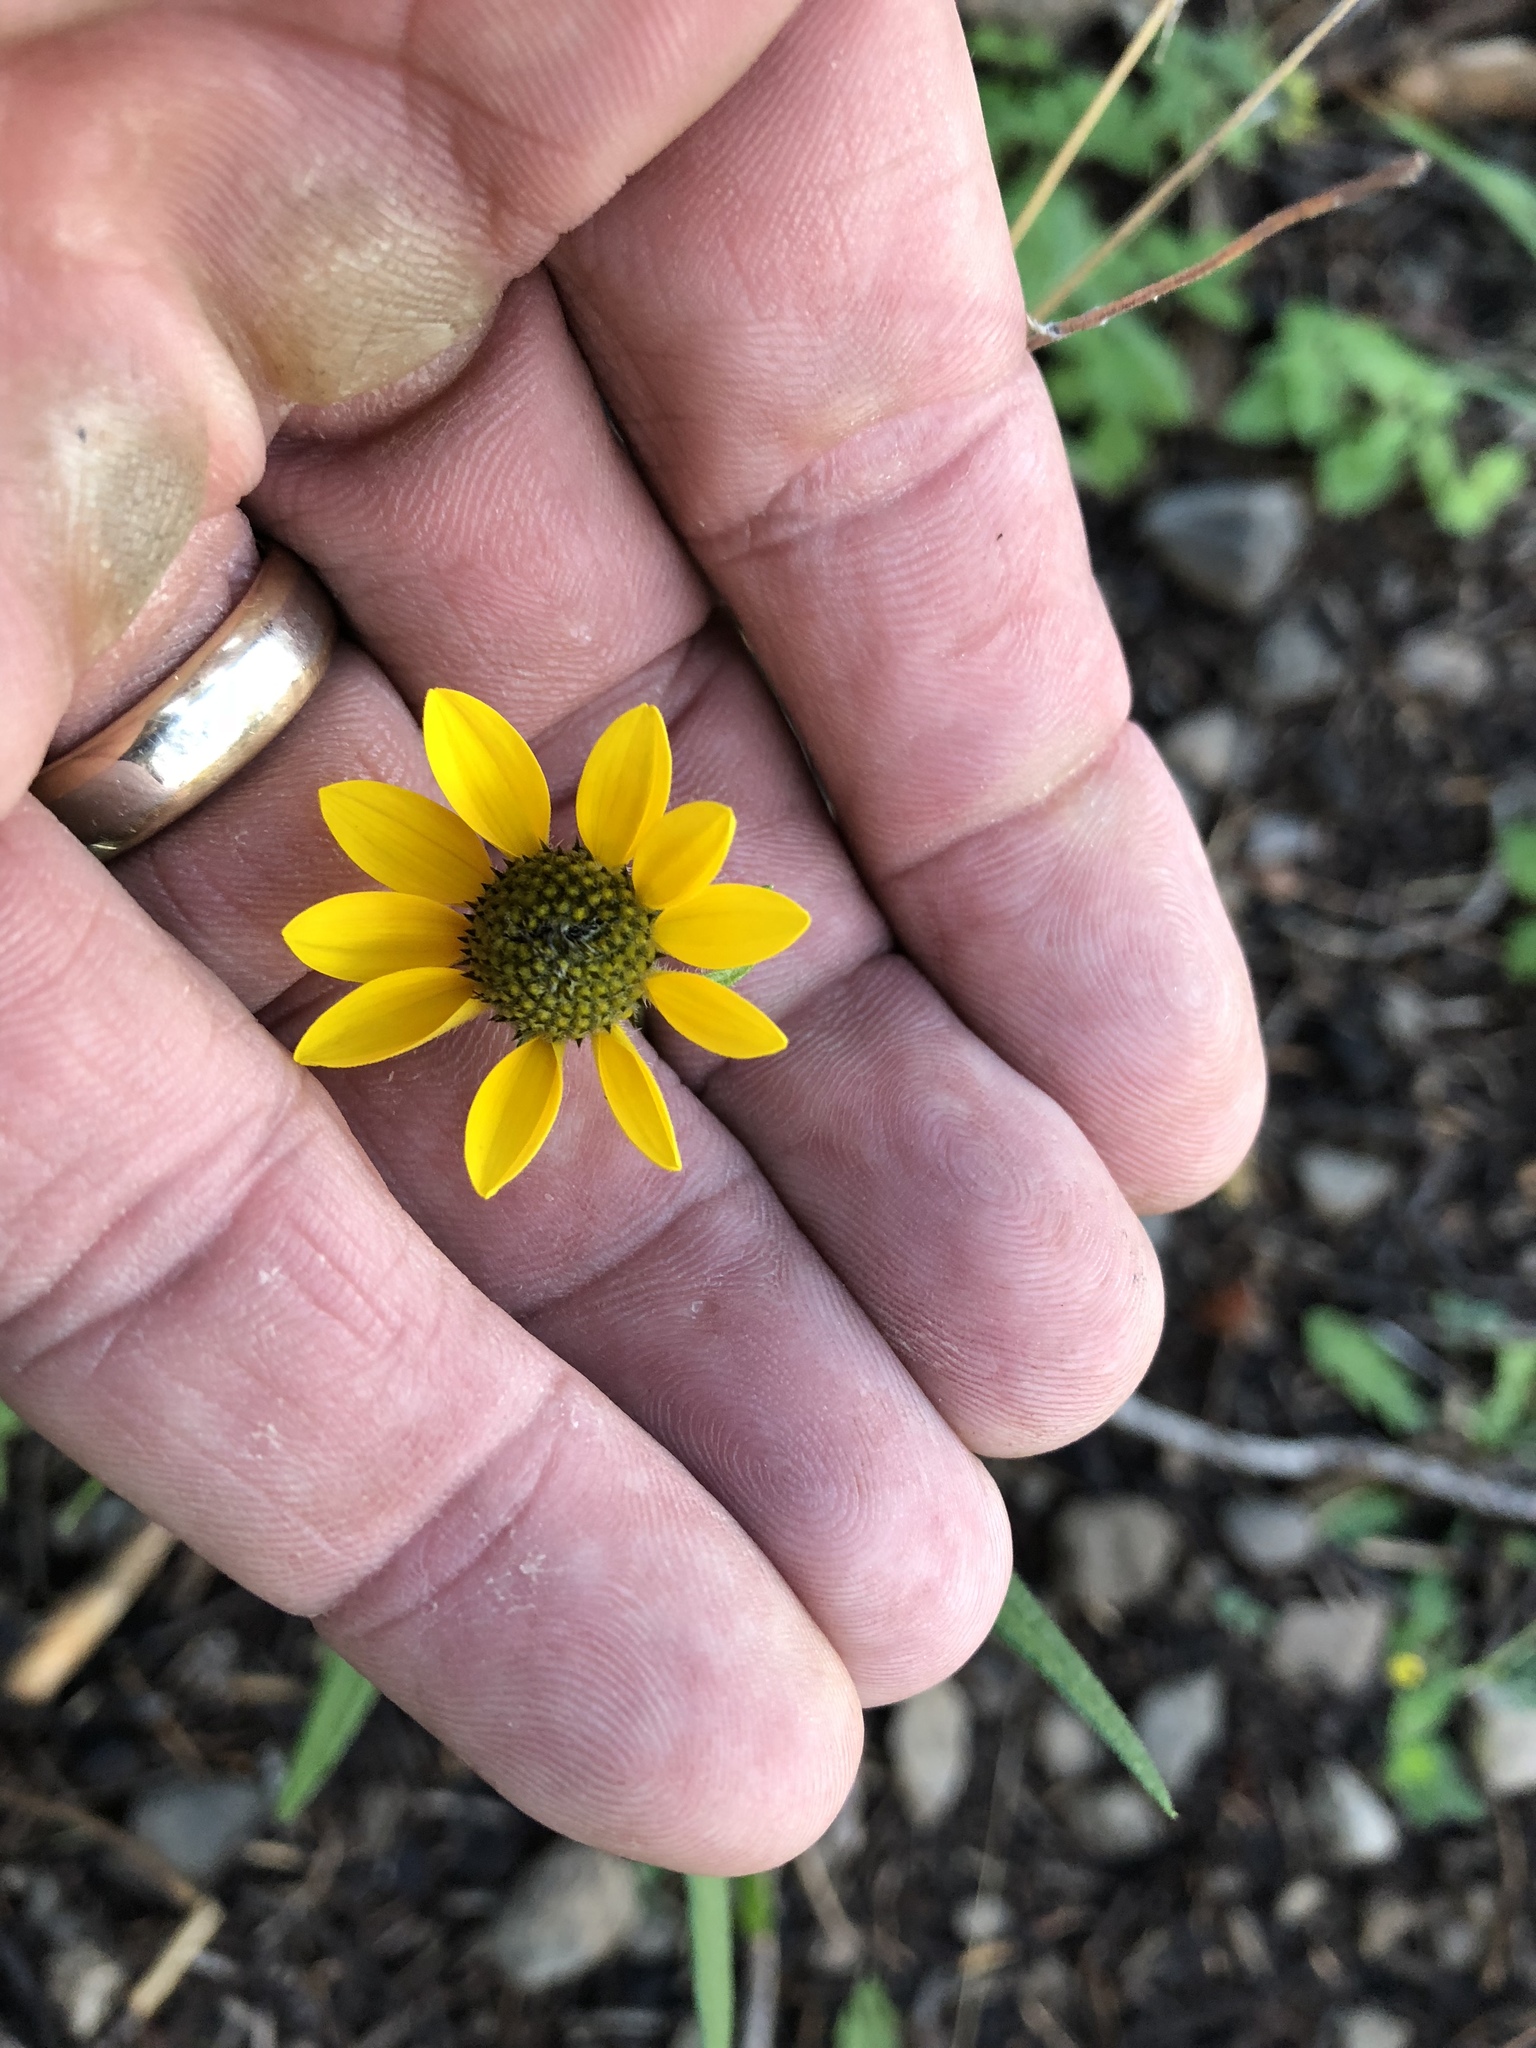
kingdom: Plantae
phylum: Tracheophyta
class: Magnoliopsida
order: Asterales
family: Asteraceae
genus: Heliomeris
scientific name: Heliomeris multiflora
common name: Showy goldeneye
